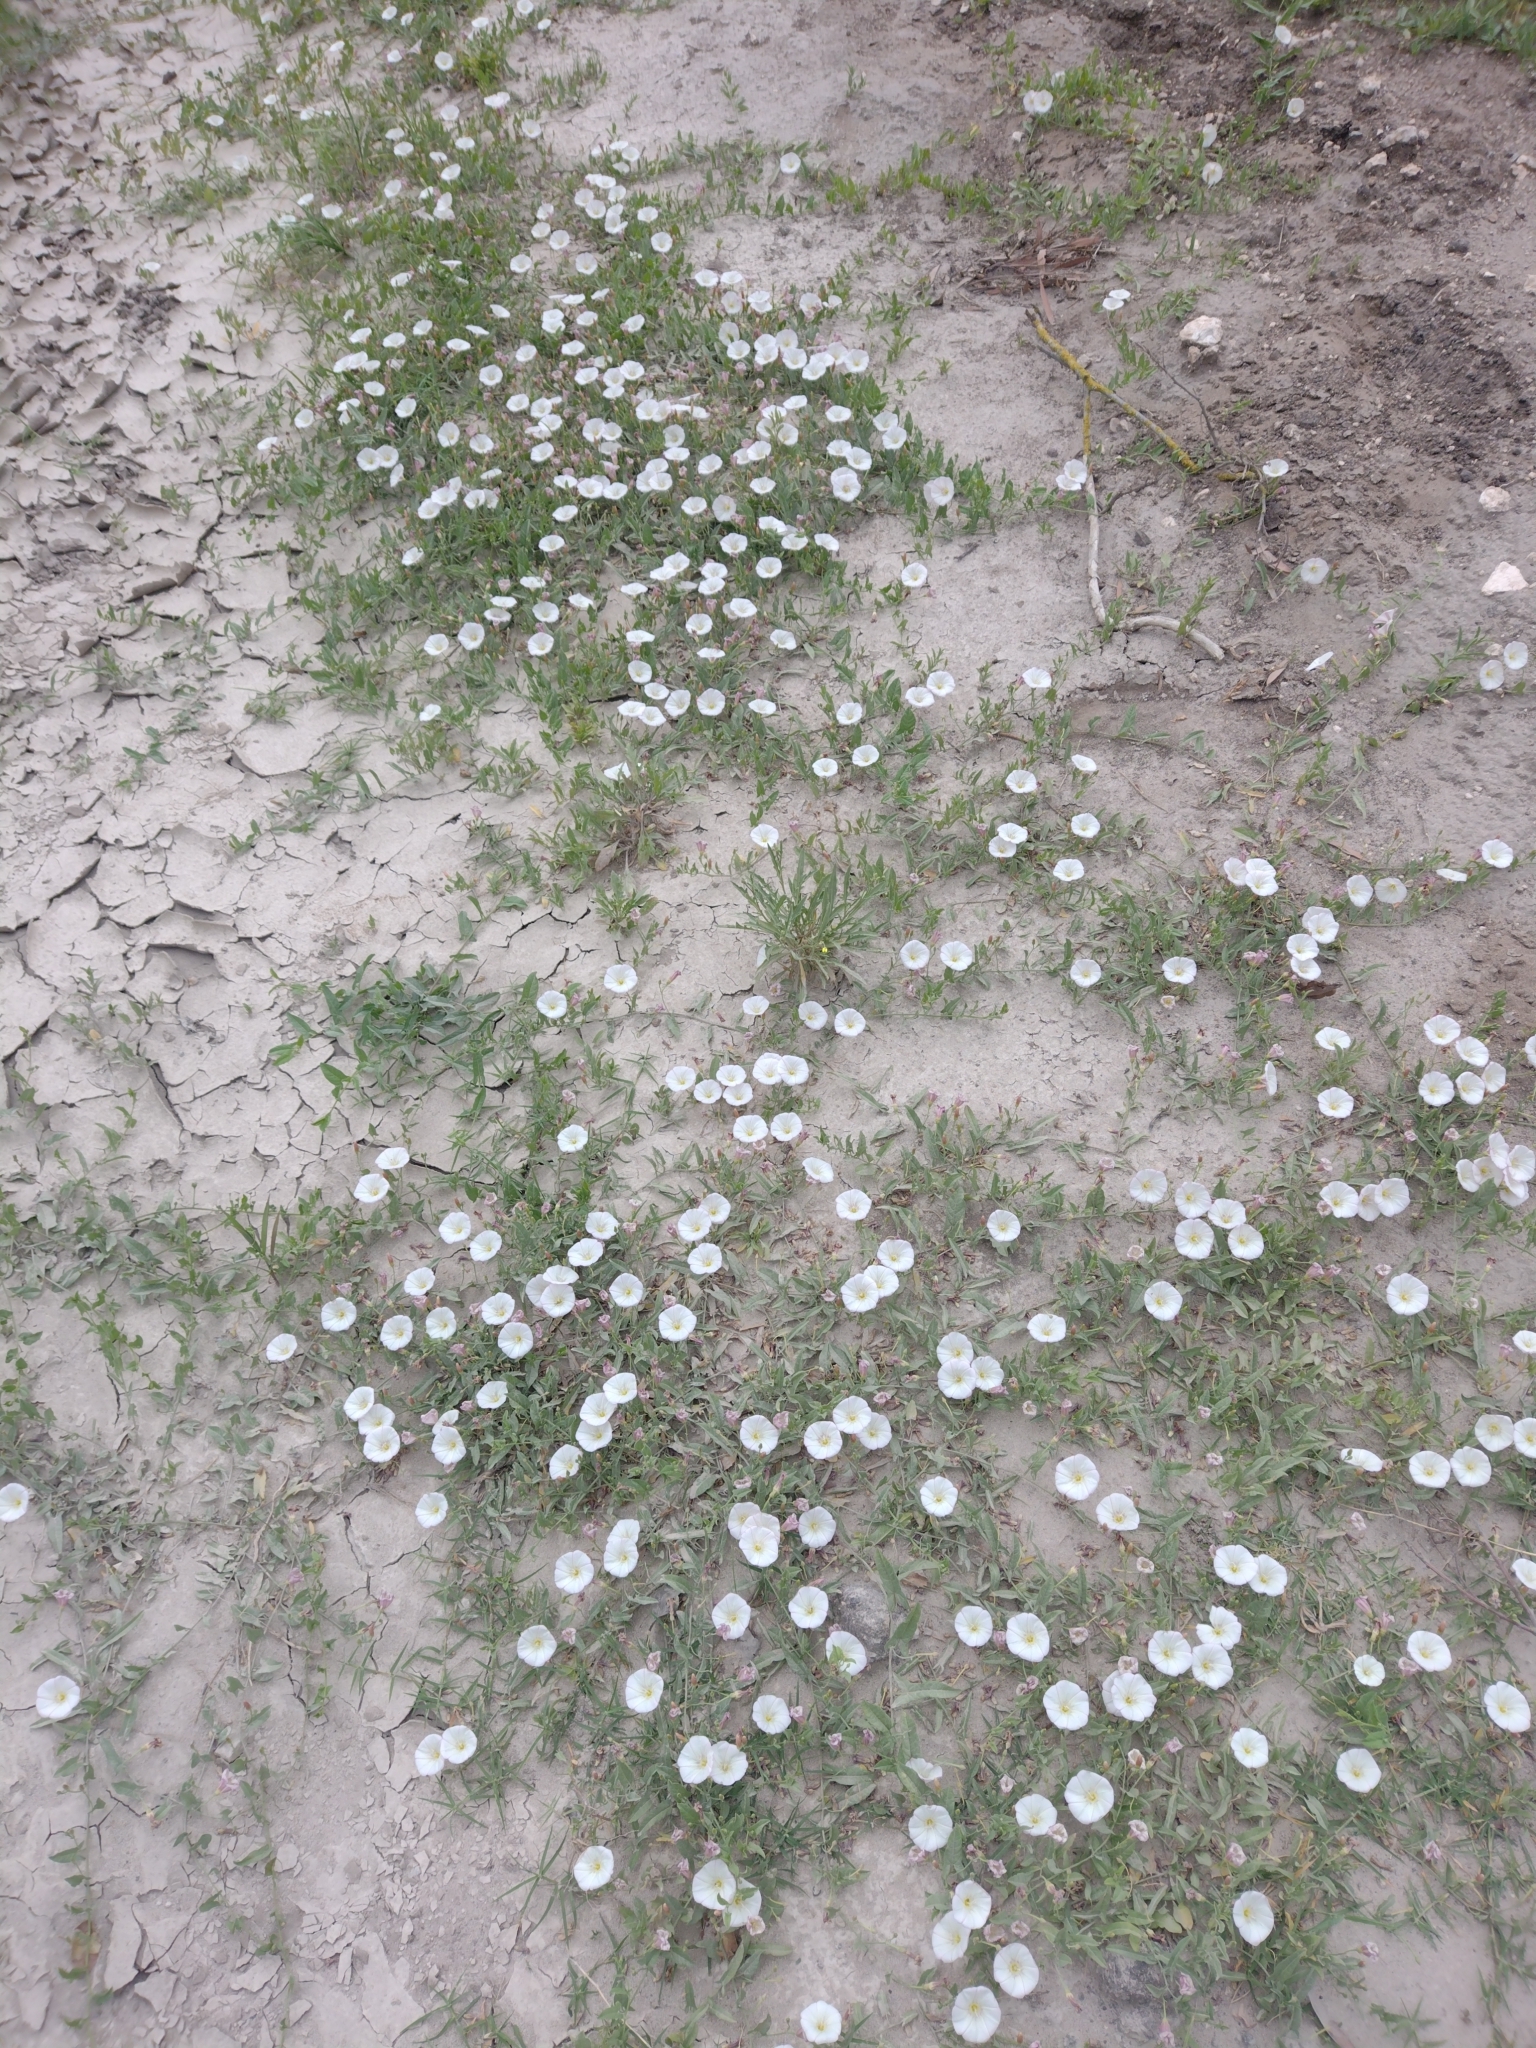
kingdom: Plantae
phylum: Tracheophyta
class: Magnoliopsida
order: Solanales
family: Convolvulaceae
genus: Convolvulus
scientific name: Convolvulus arvensis
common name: Field bindweed
